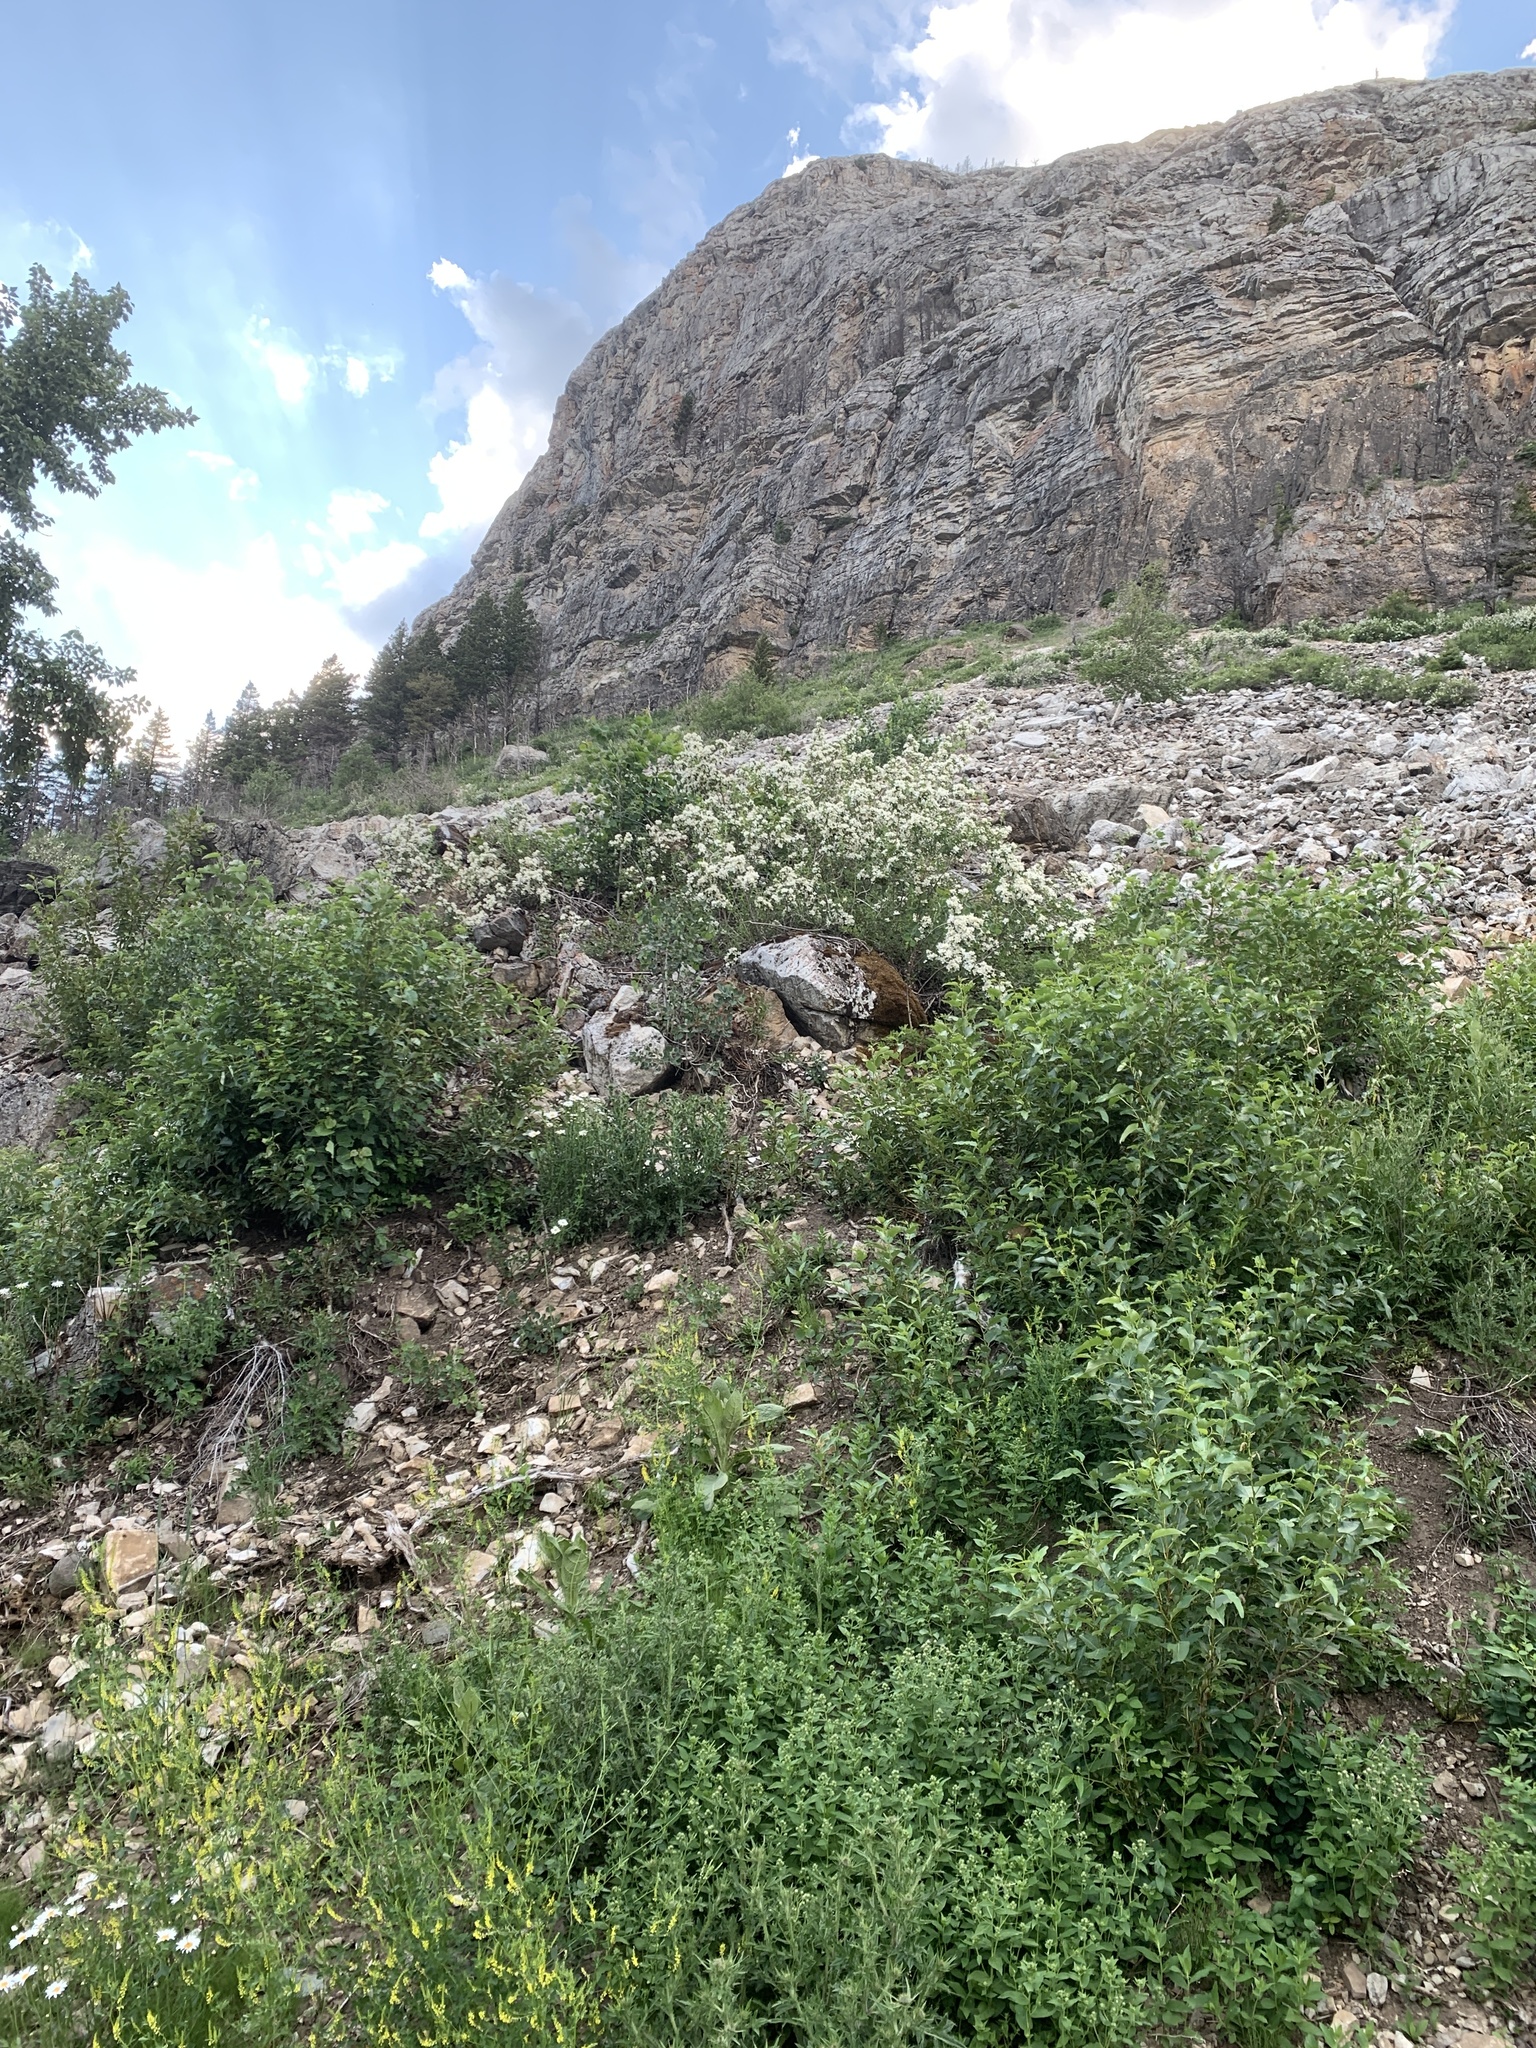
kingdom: Plantae
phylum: Tracheophyta
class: Magnoliopsida
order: Cornales
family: Hydrangeaceae
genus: Philadelphus
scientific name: Philadelphus lewisii
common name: Lewis's mock orange
